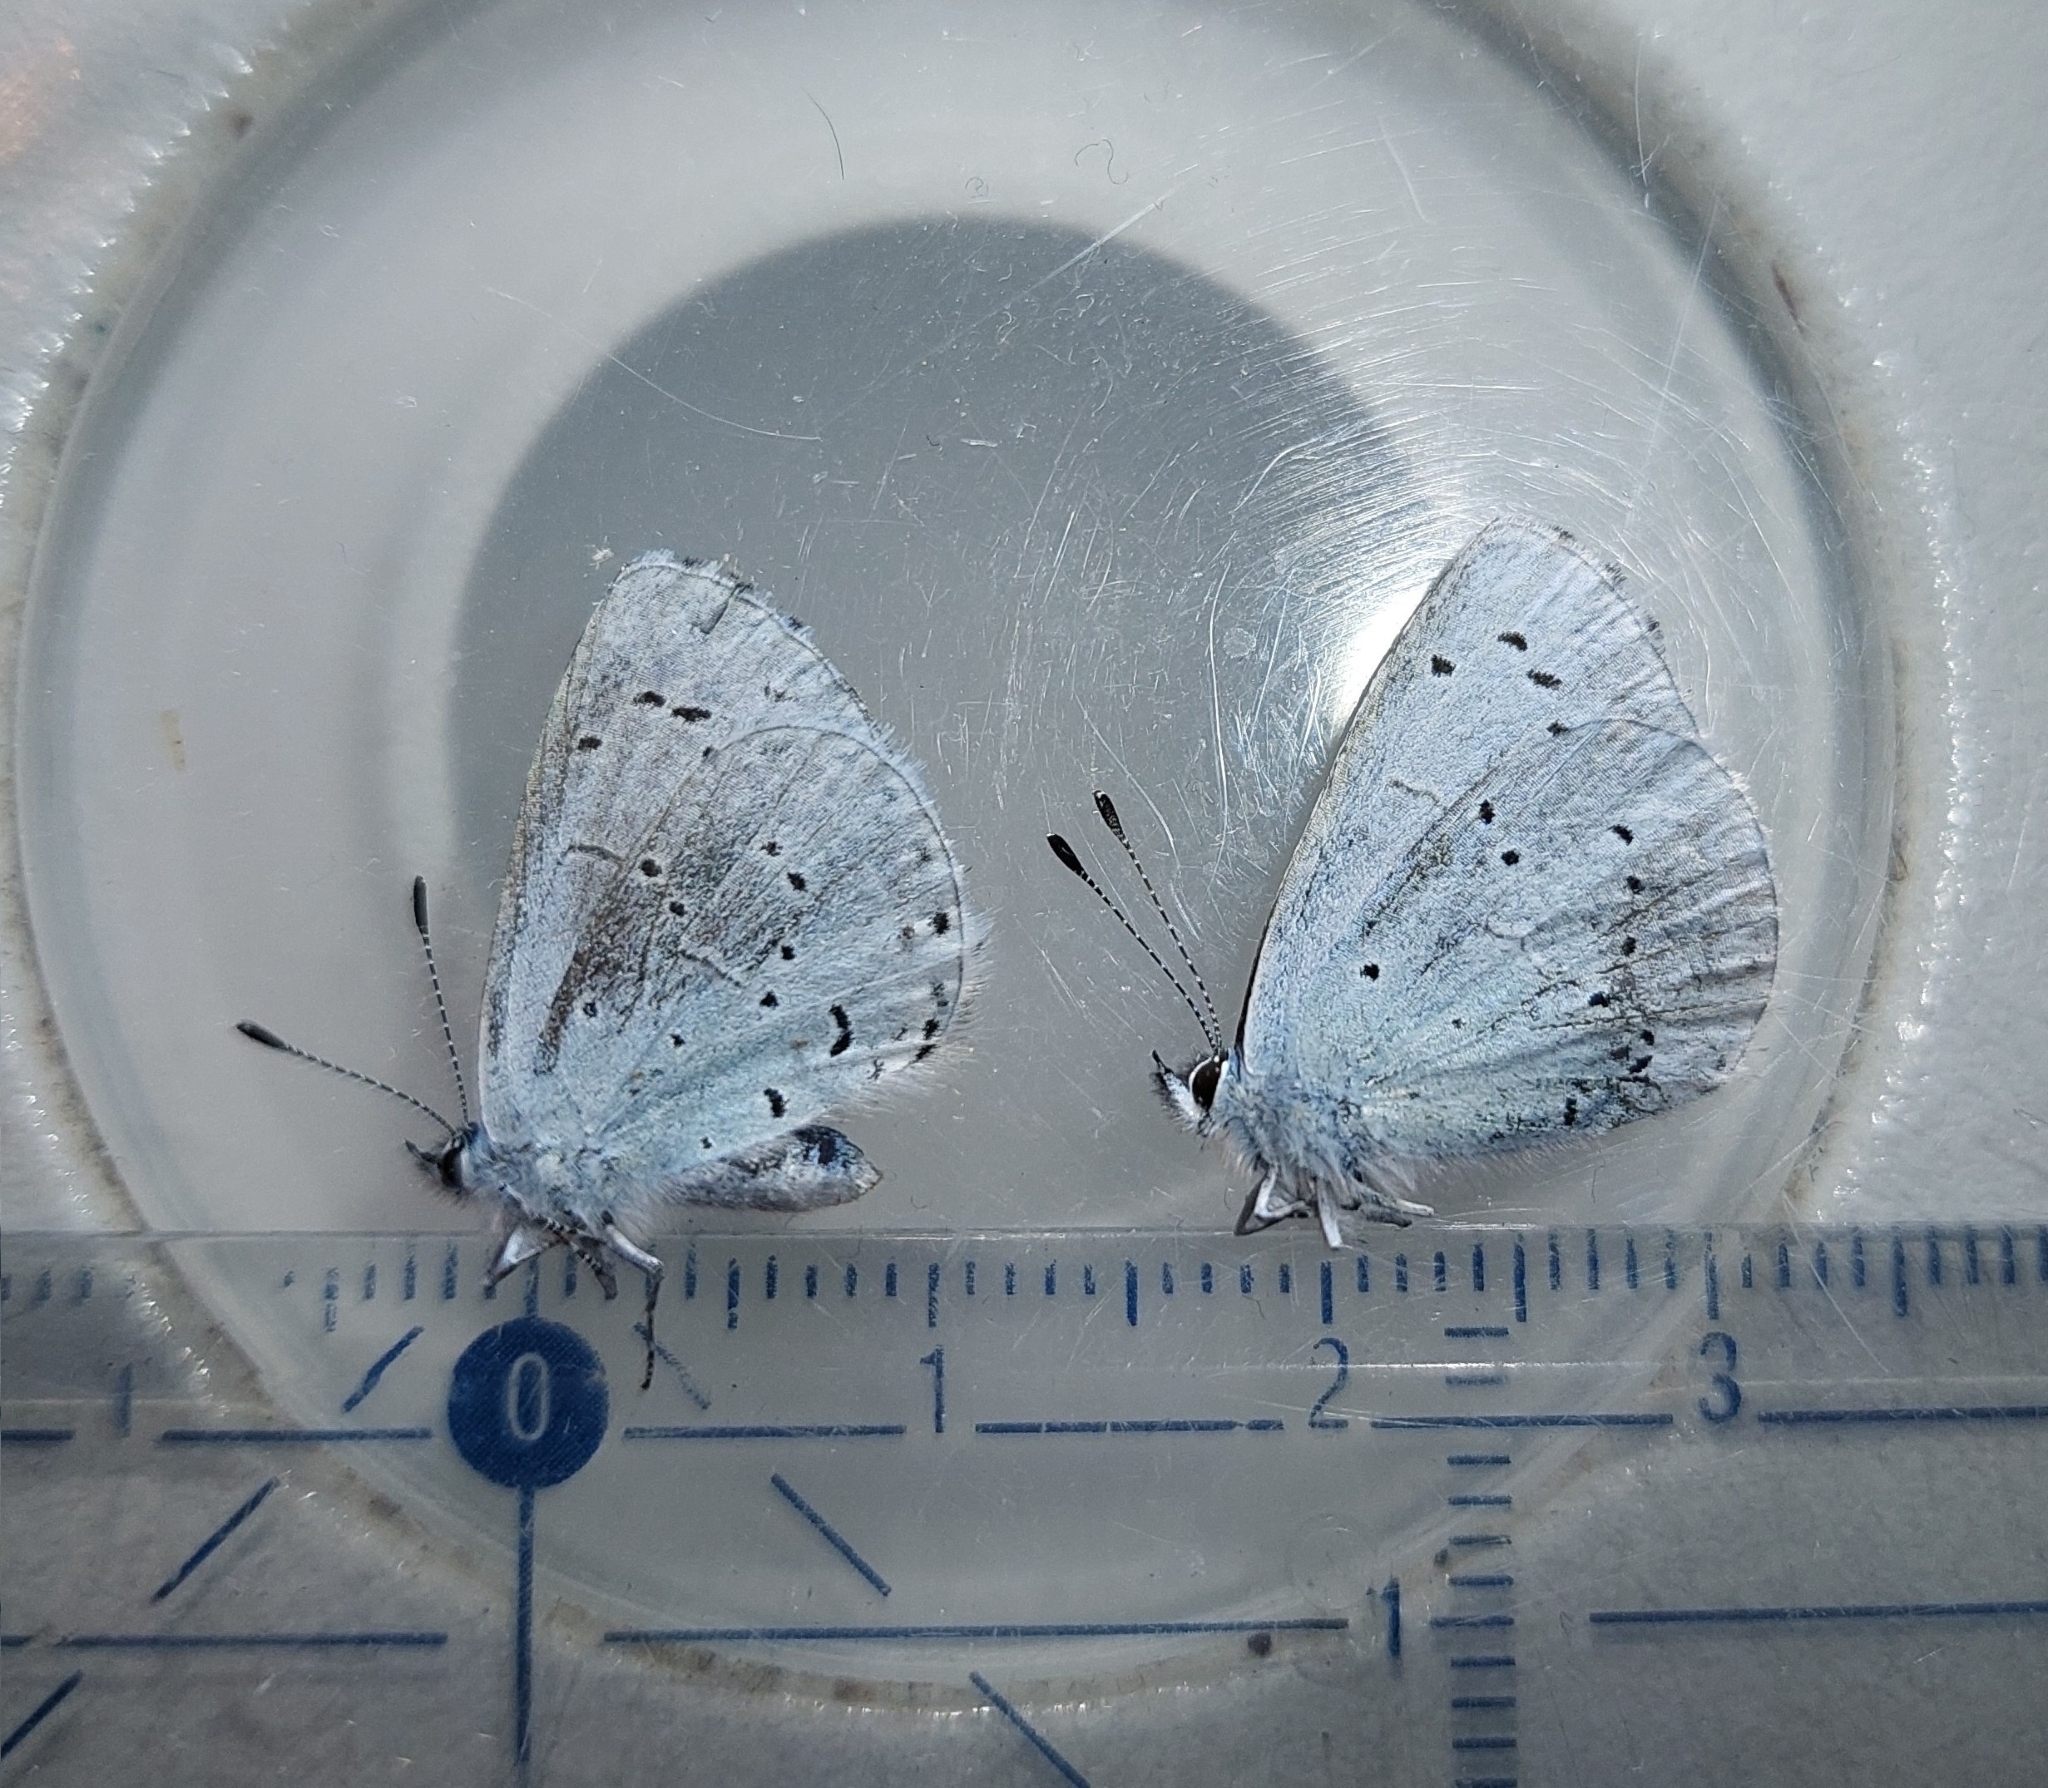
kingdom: Animalia
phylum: Arthropoda
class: Insecta
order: Lepidoptera
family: Lycaenidae
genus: Celastrina
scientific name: Celastrina argiolus
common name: Holly blue
